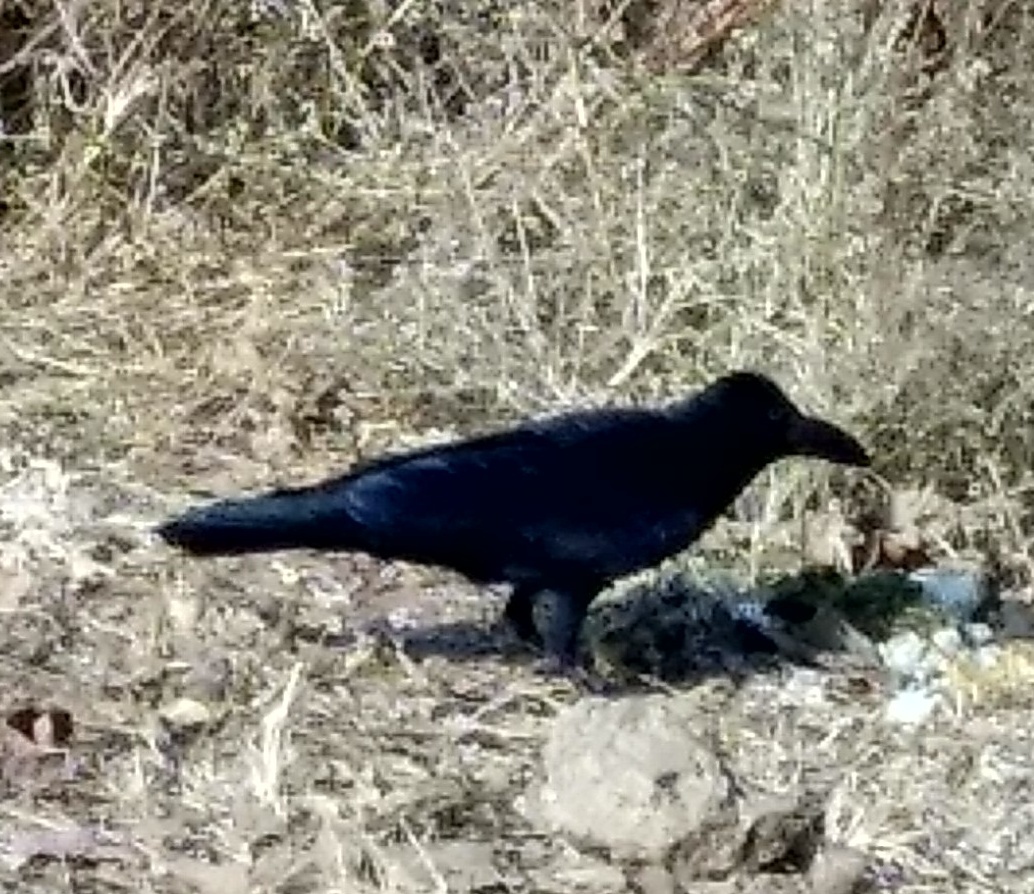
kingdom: Animalia
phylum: Chordata
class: Aves
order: Passeriformes
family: Corvidae
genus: Corvus
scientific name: Corvus macrorhynchos
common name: Large-billed crow
